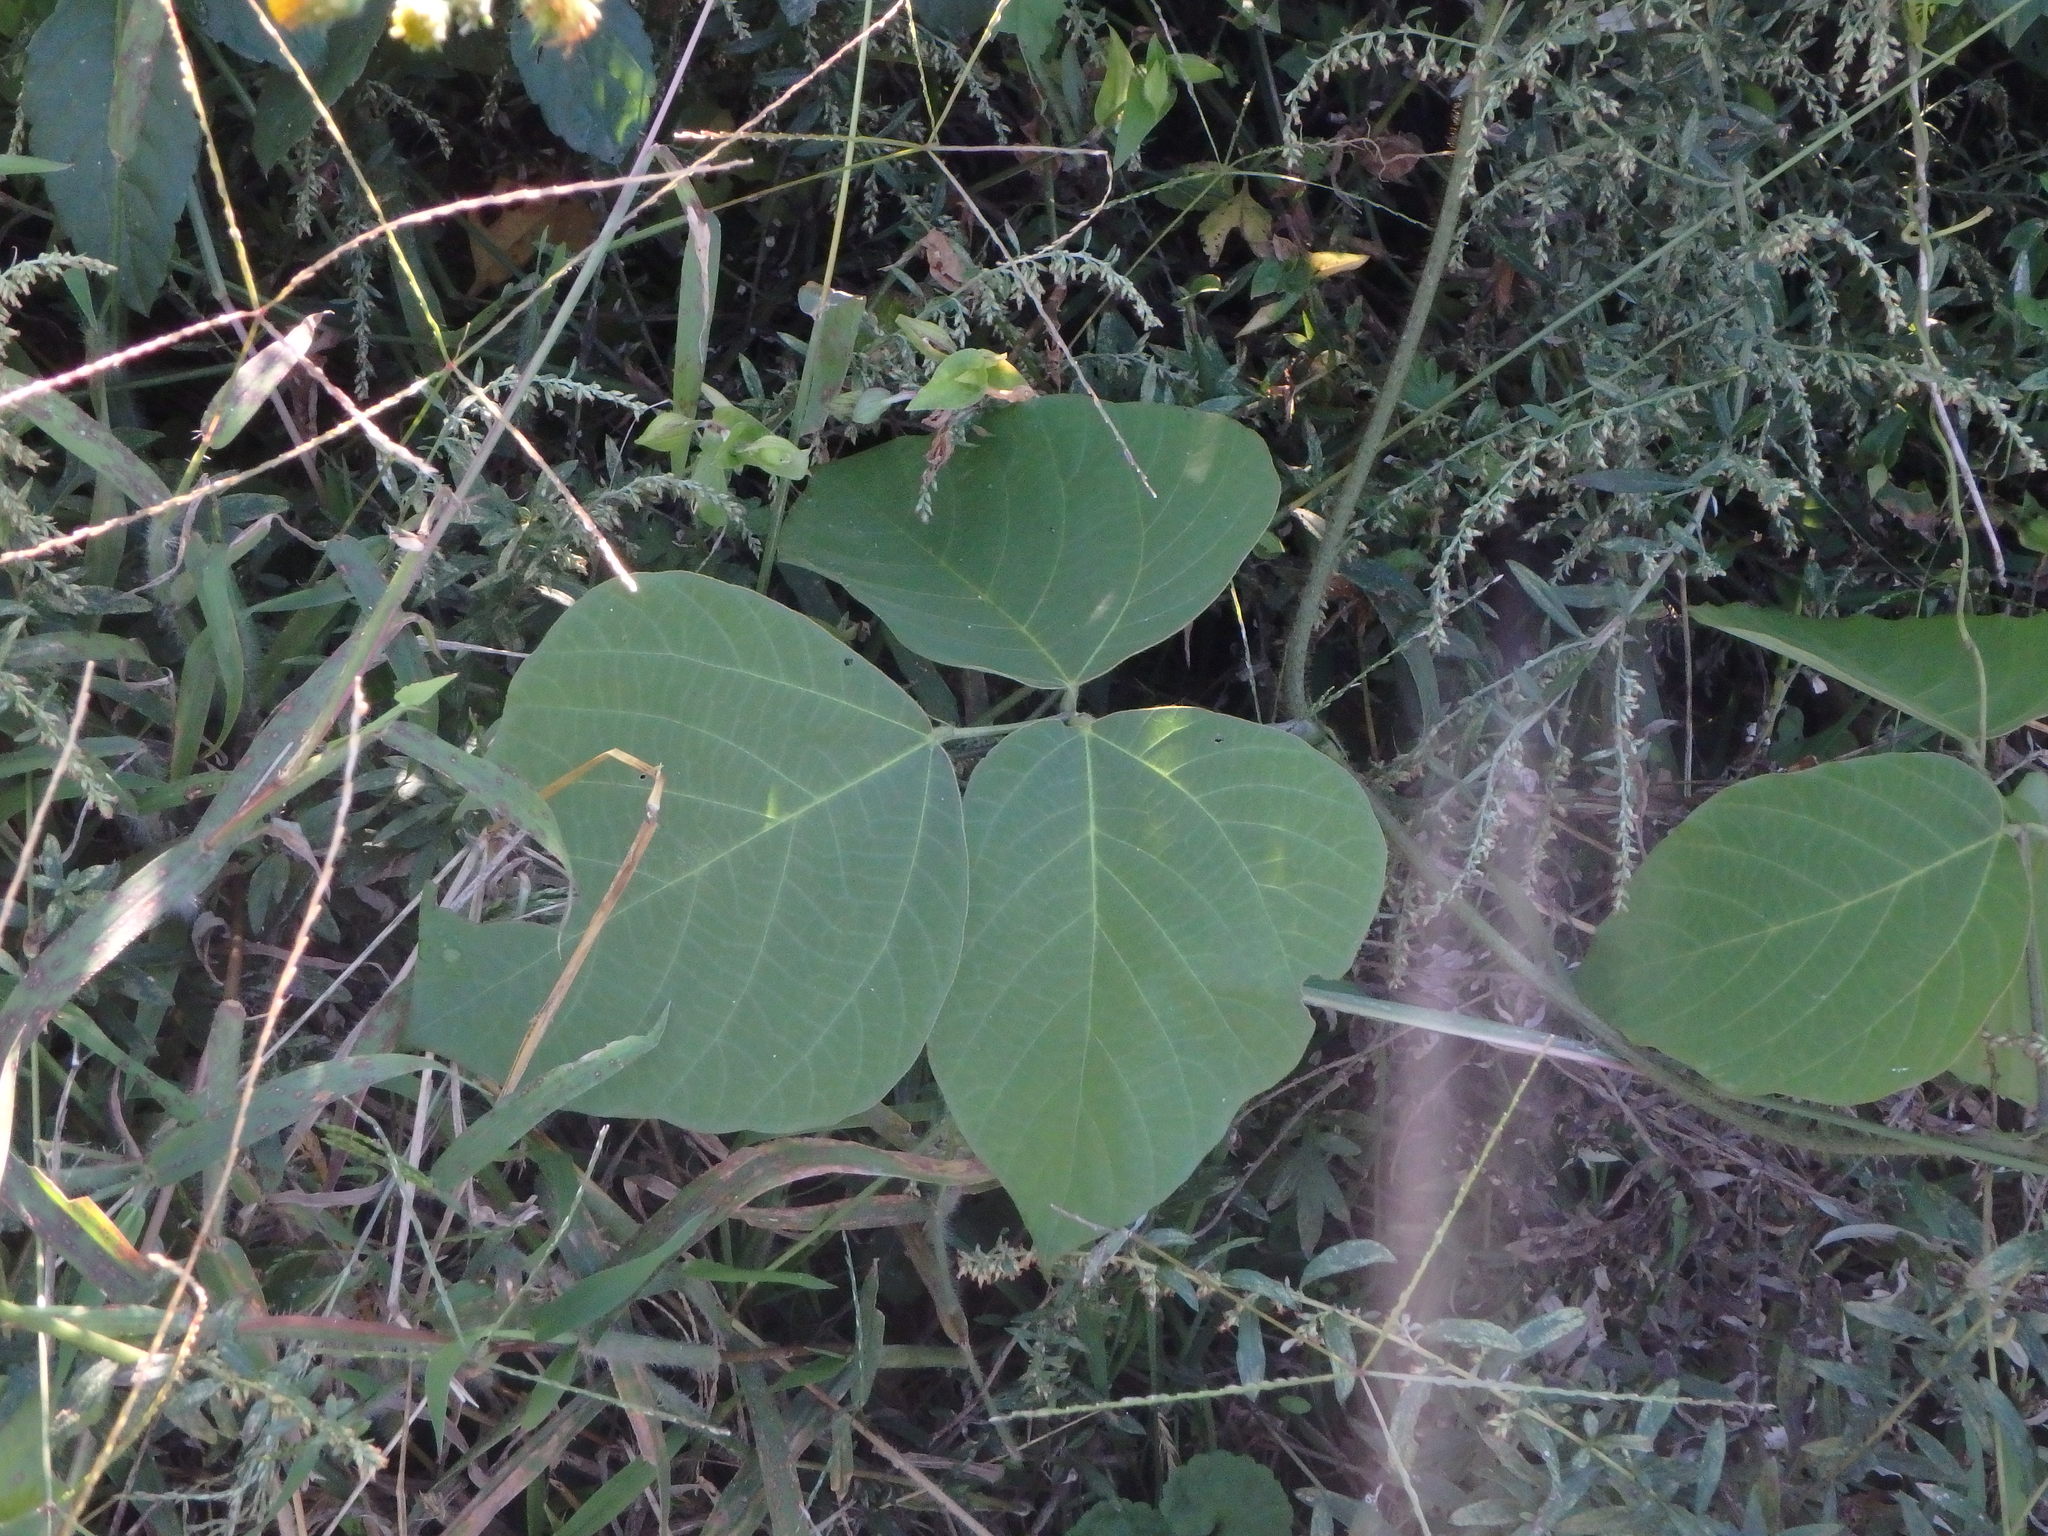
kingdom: Plantae
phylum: Tracheophyta
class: Magnoliopsida
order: Fabales
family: Fabaceae
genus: Pueraria
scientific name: Pueraria montana
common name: Kudzu
